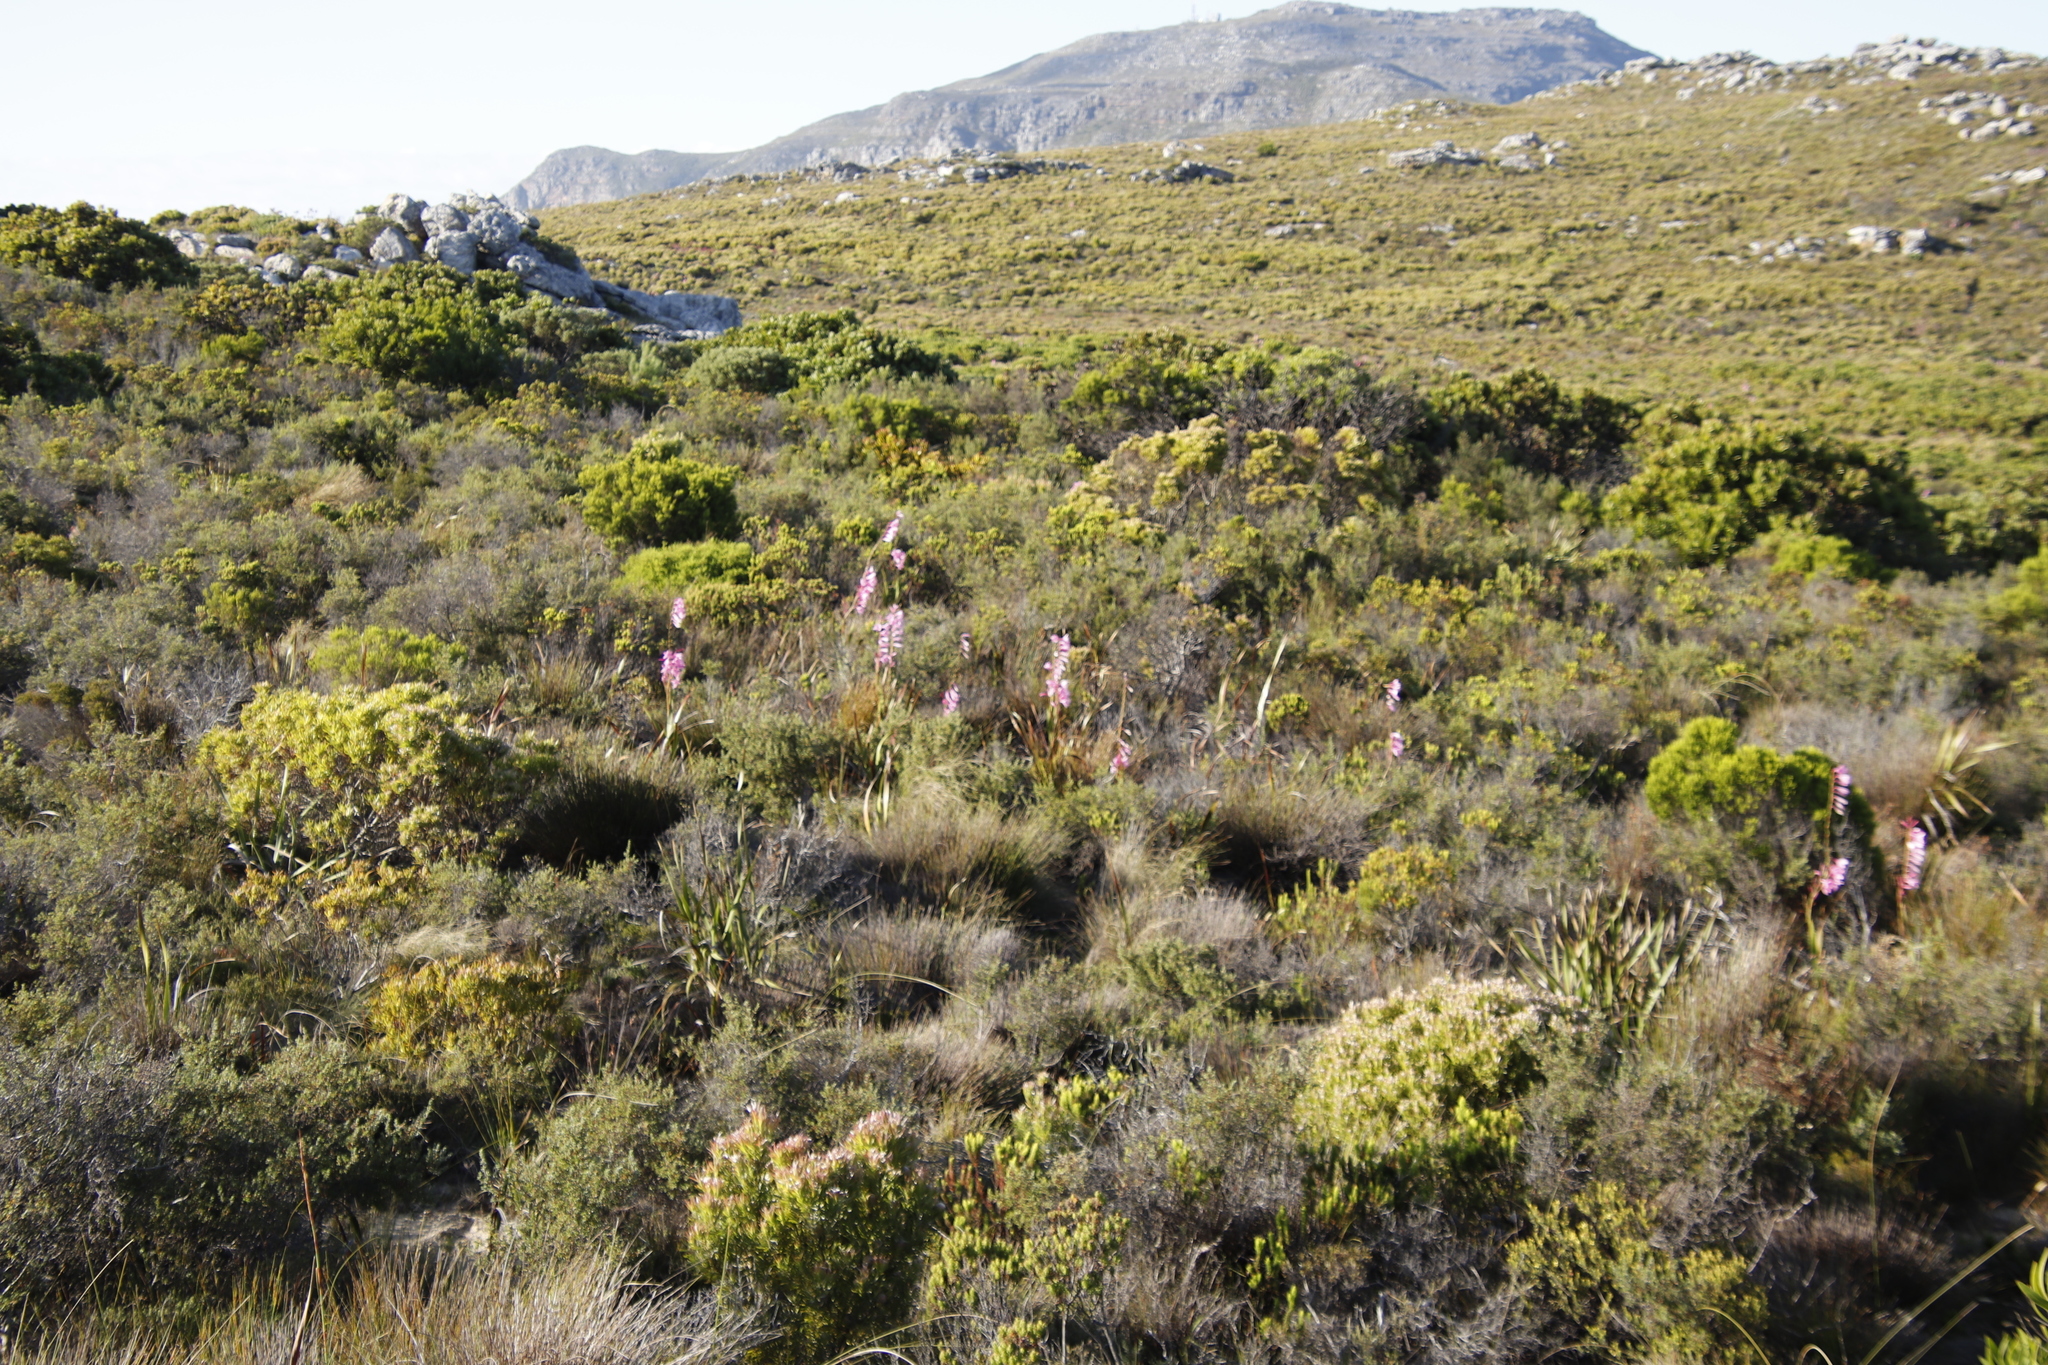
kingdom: Plantae
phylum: Tracheophyta
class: Liliopsida
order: Asparagales
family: Iridaceae
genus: Watsonia
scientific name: Watsonia borbonica
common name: Bugle-lily
